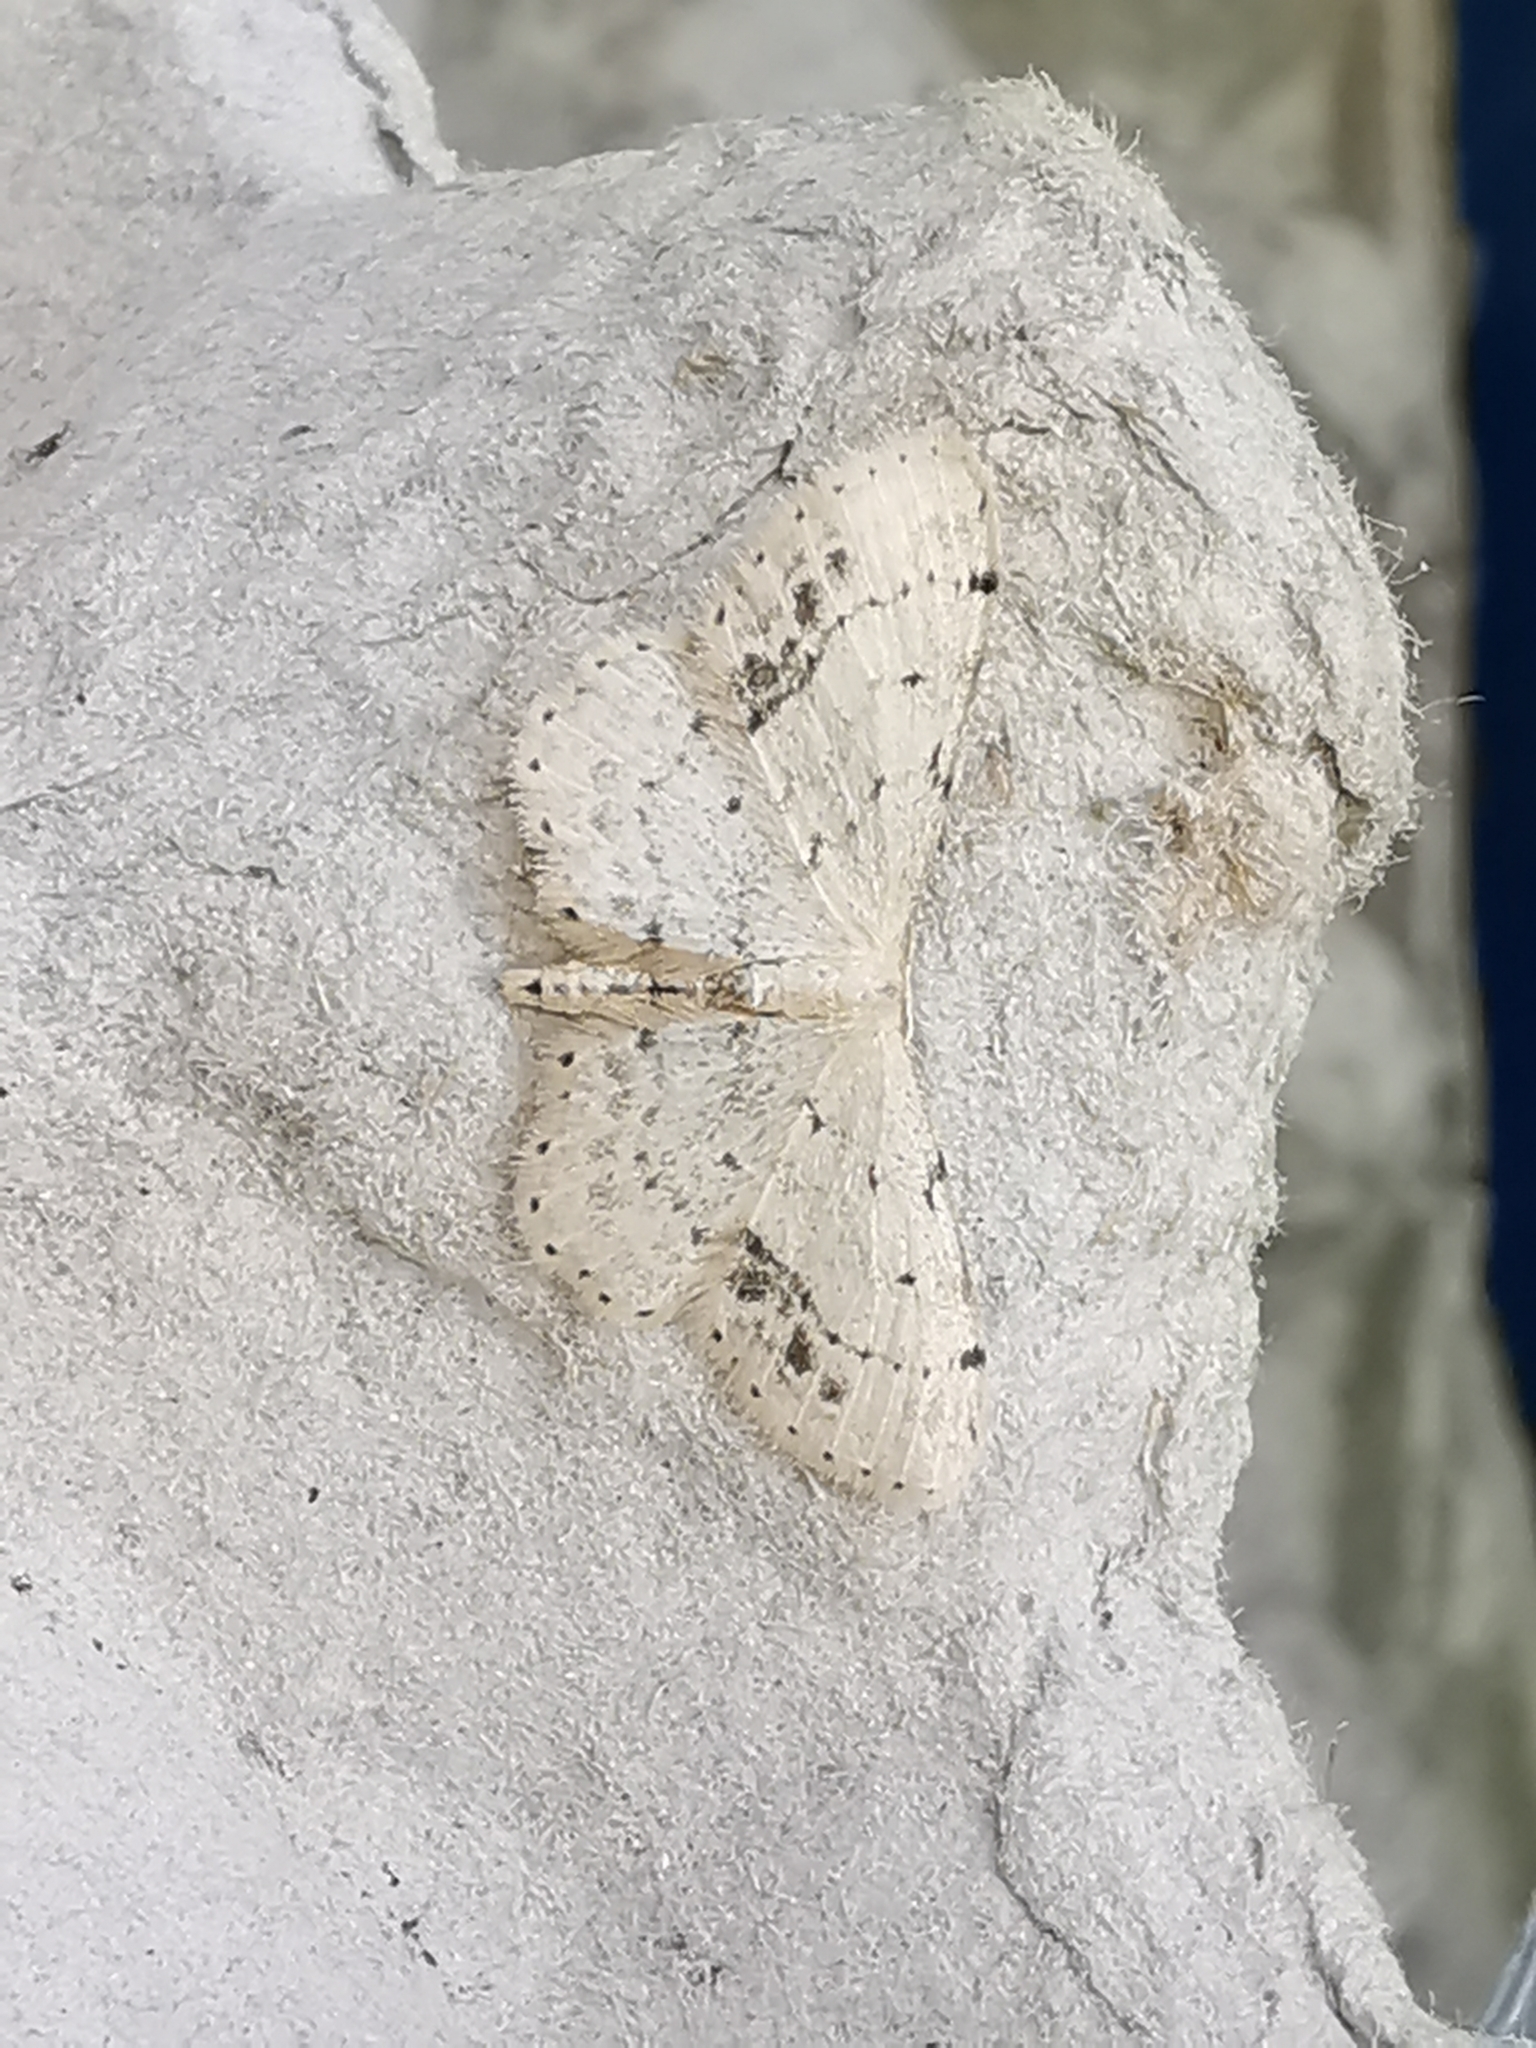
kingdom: Animalia
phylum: Arthropoda
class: Insecta
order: Lepidoptera
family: Geometridae
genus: Idaea
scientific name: Idaea dimidiata
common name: Single-dotted wave
